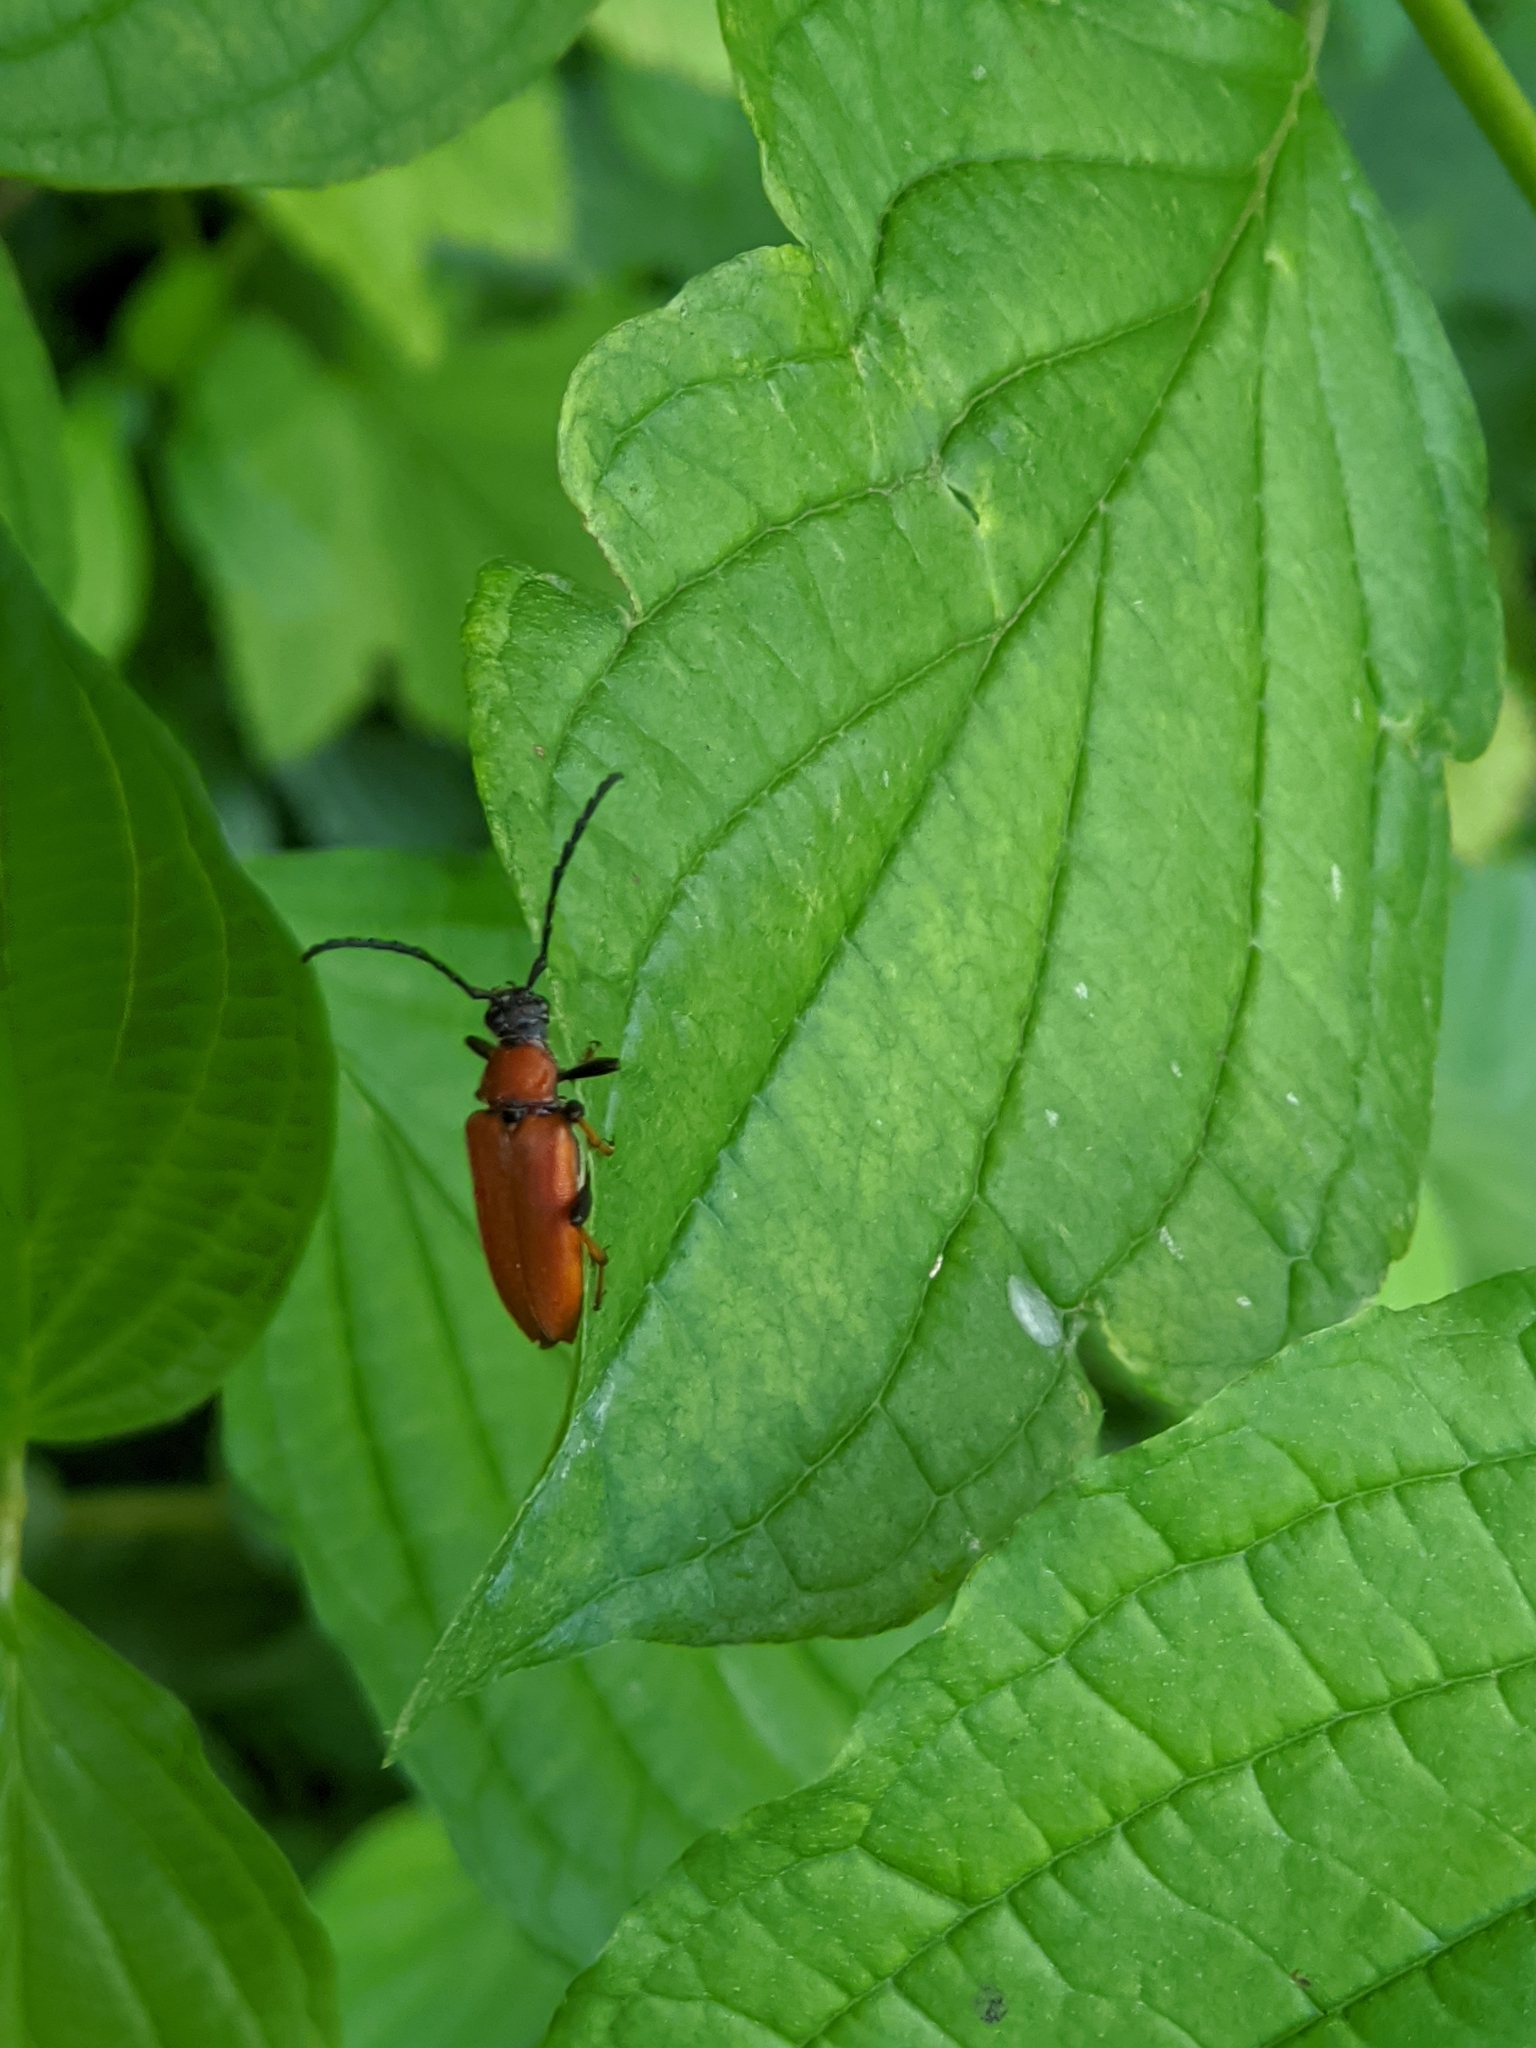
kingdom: Animalia
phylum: Arthropoda
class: Insecta
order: Coleoptera
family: Cerambycidae
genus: Stictoleptura
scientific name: Stictoleptura rubra
